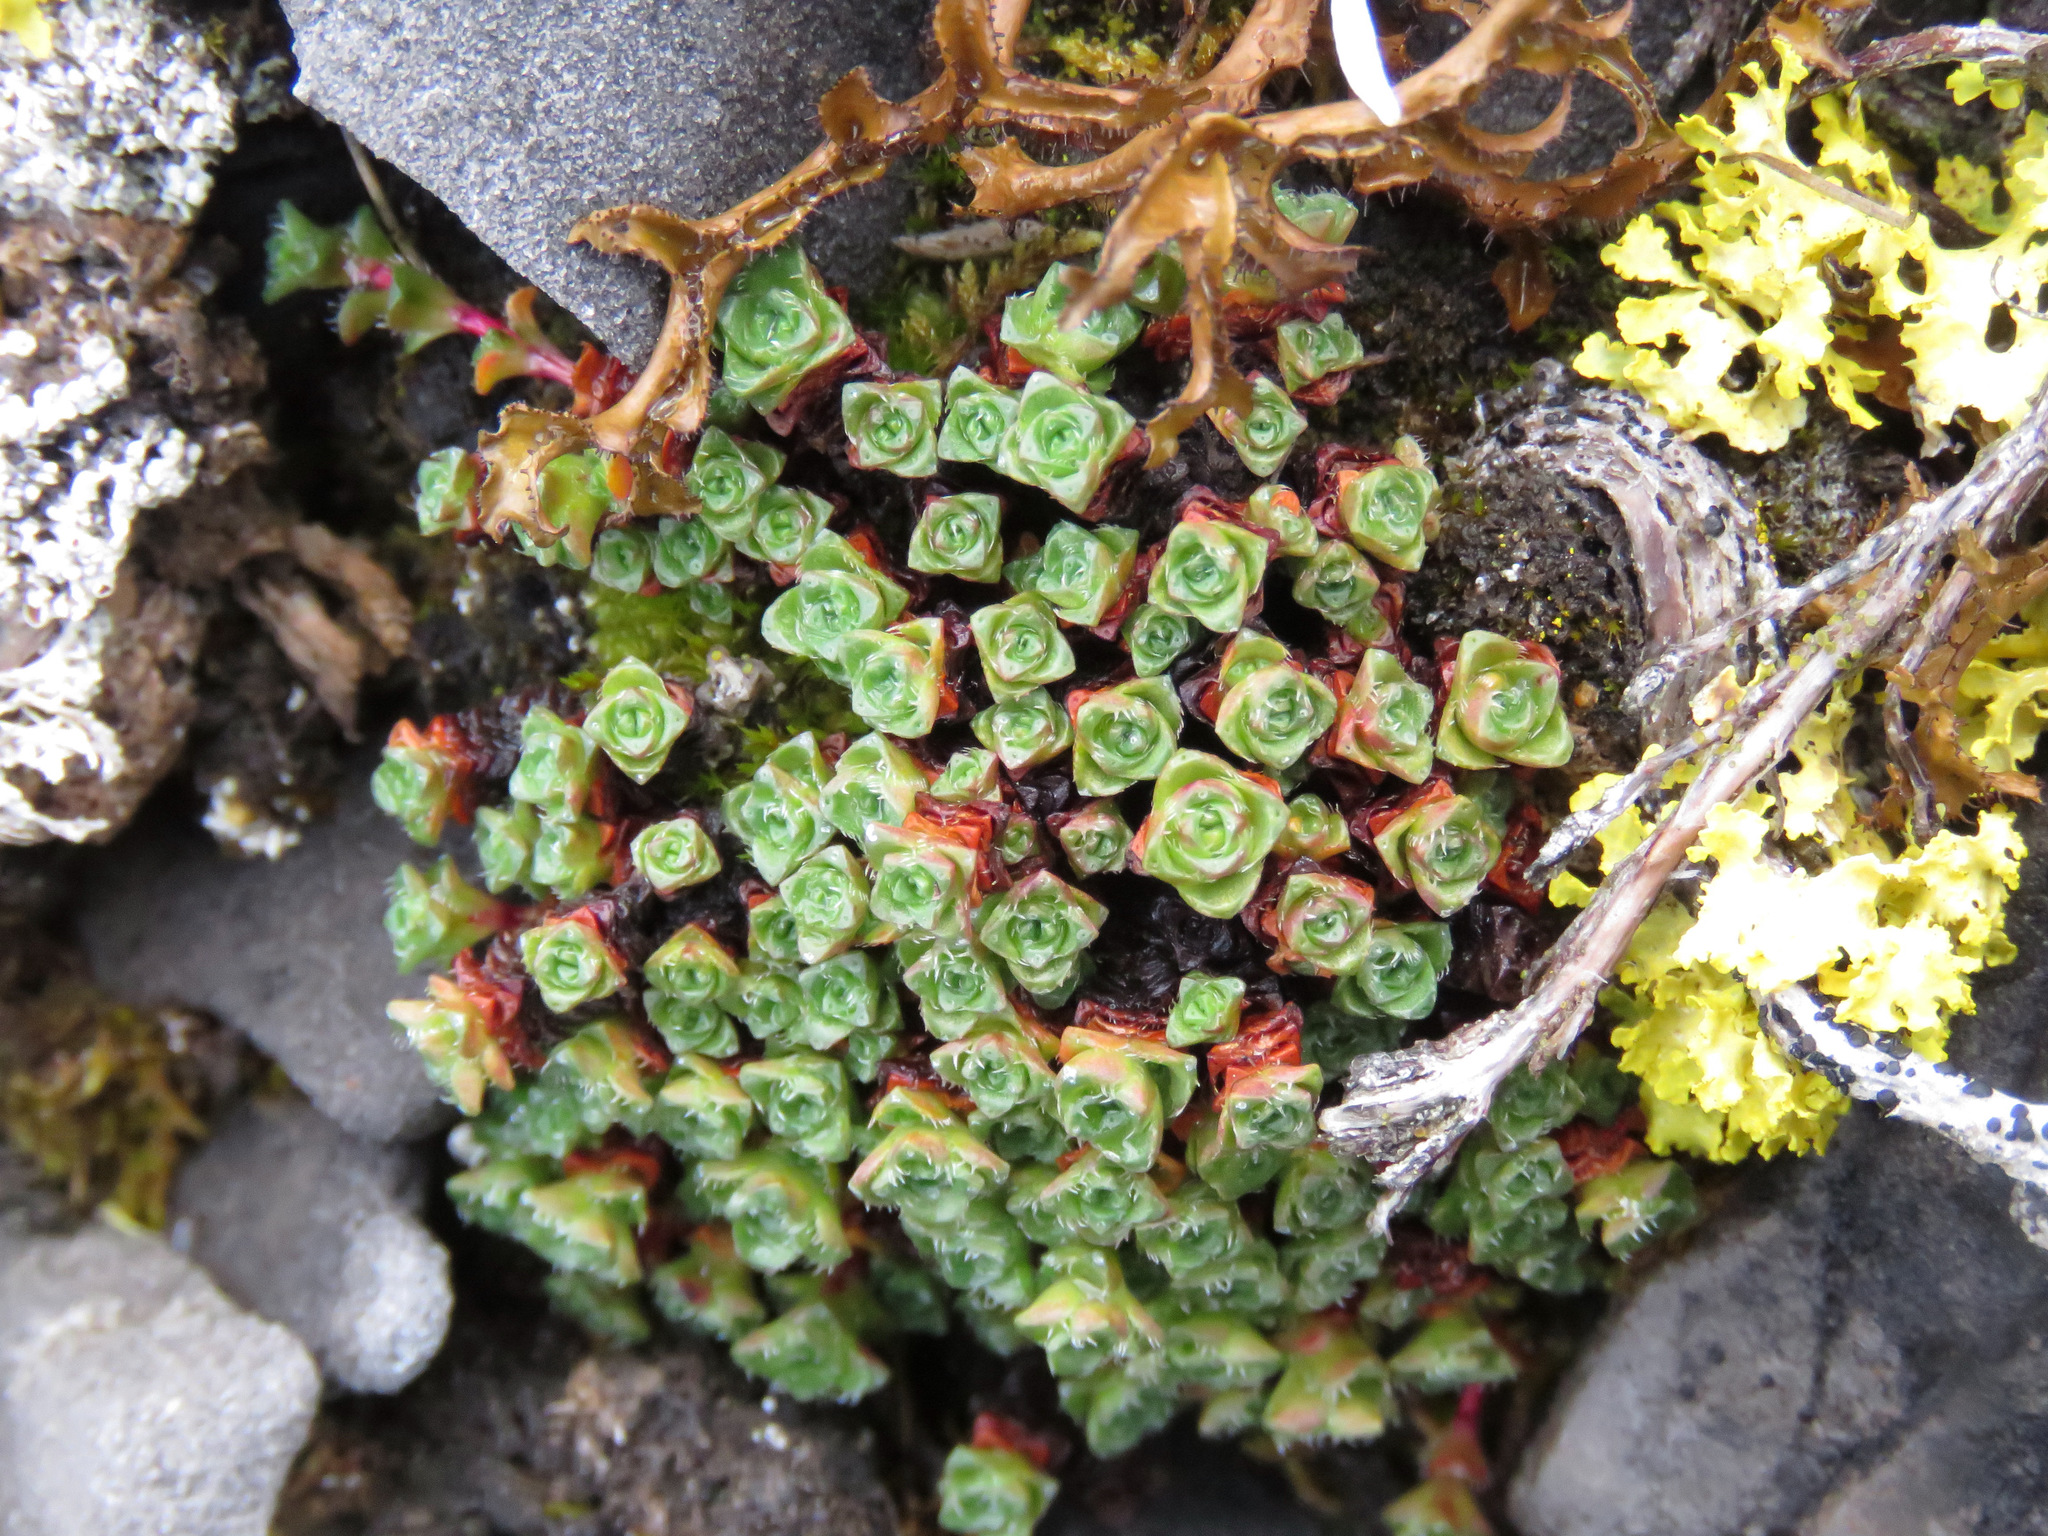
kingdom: Plantae
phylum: Tracheophyta
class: Magnoliopsida
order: Saxifragales
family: Saxifragaceae
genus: Saxifraga
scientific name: Saxifraga oppositifolia
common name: Purple saxifrage
